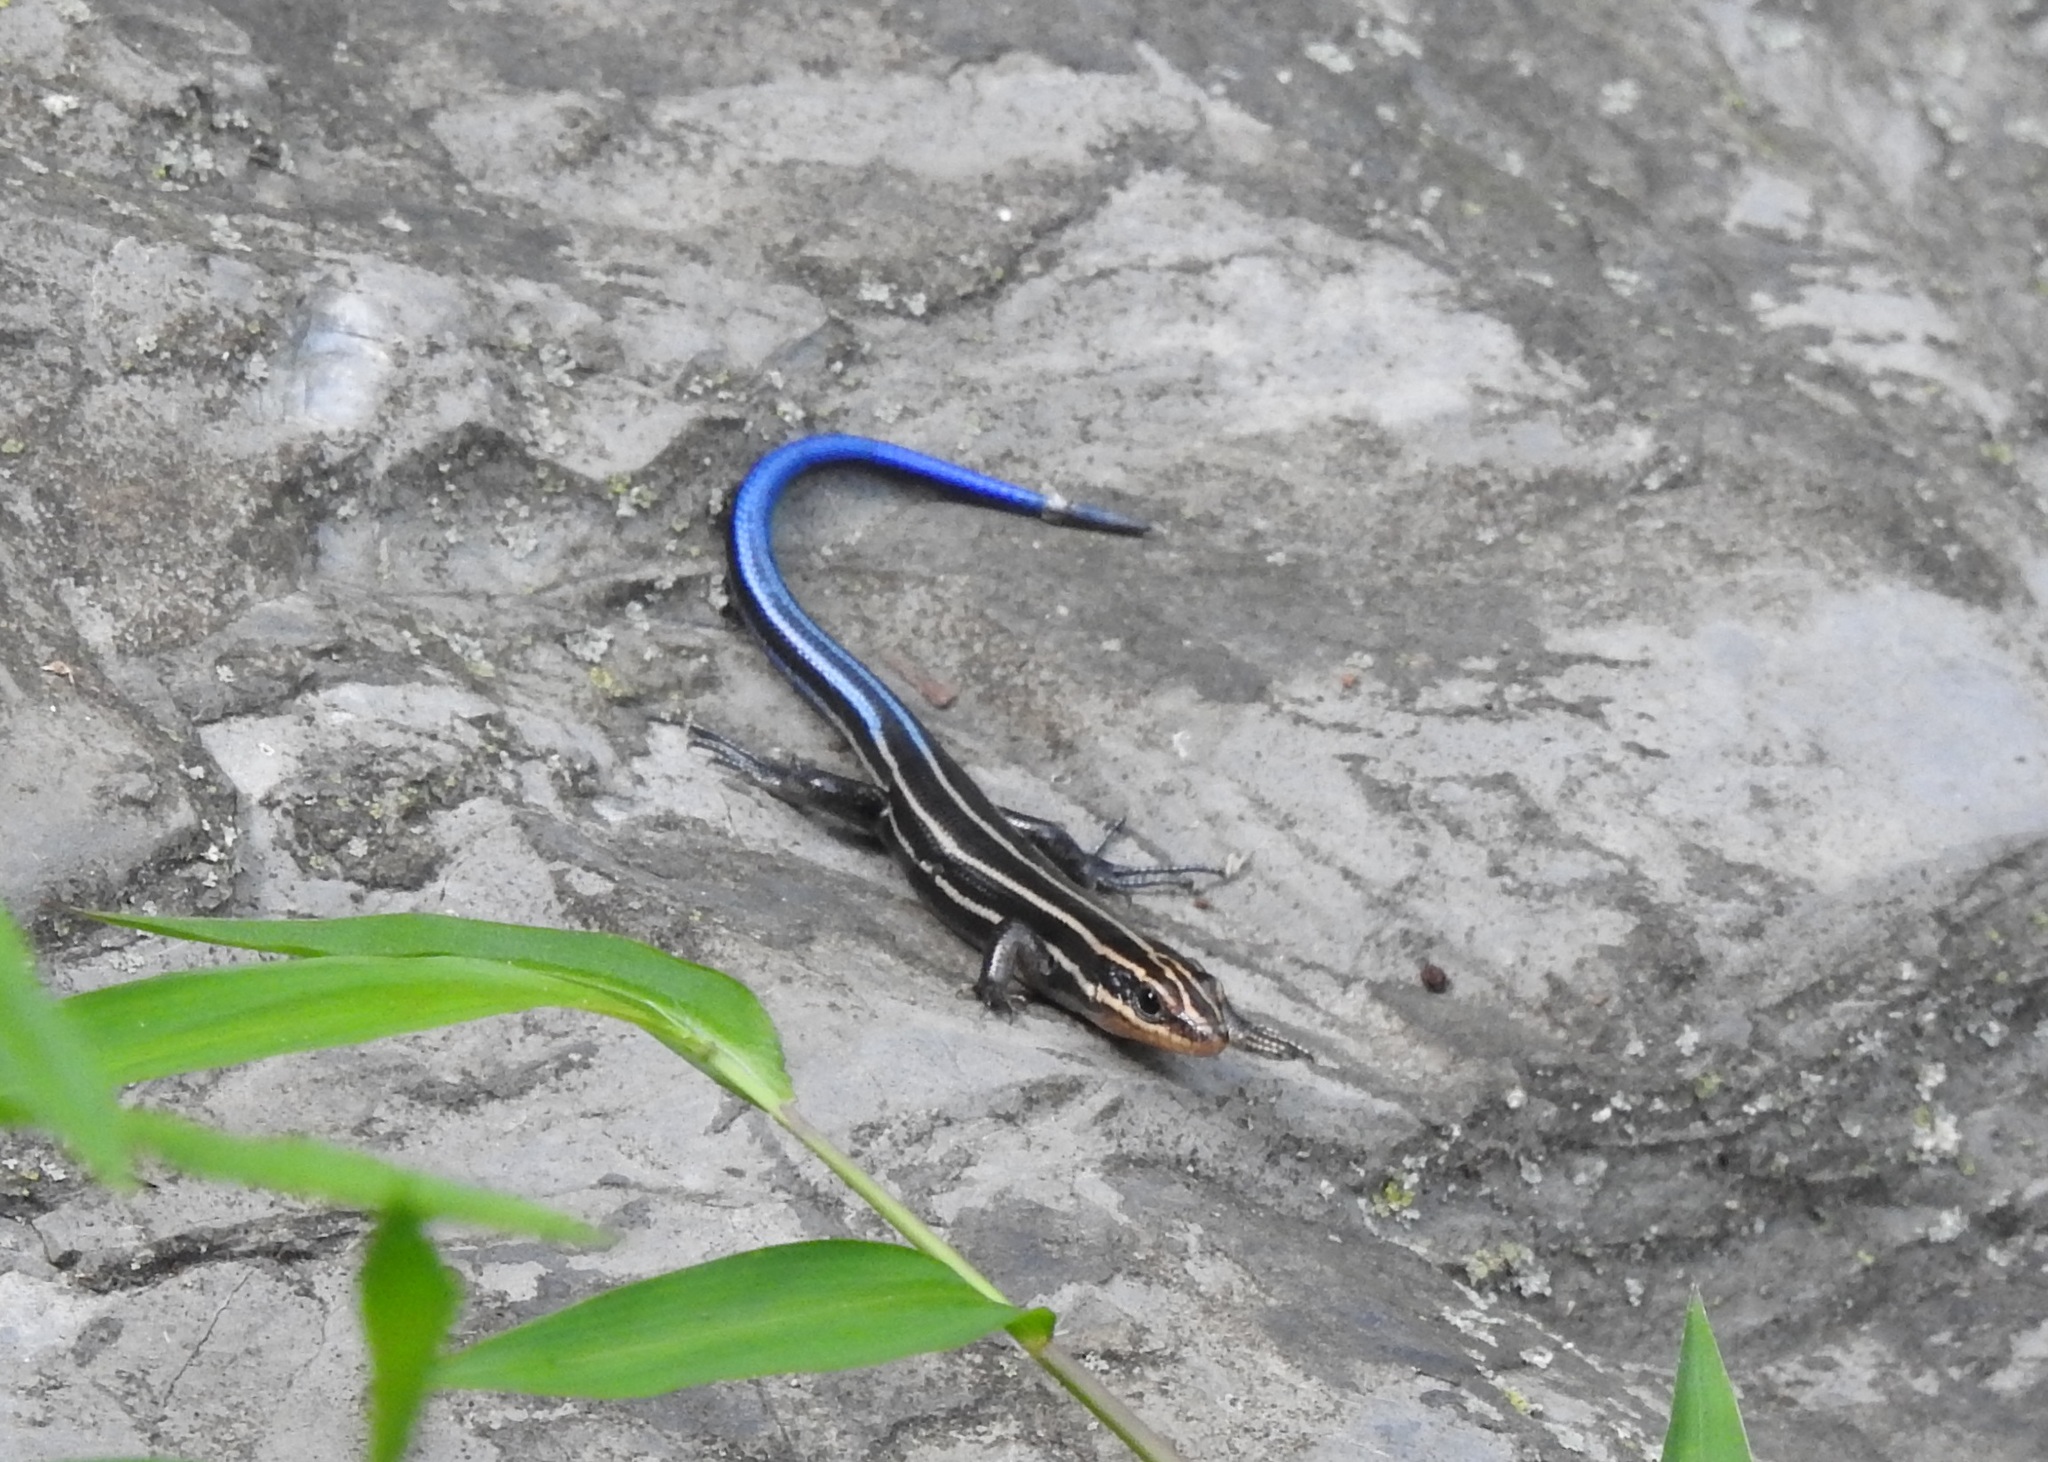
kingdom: Animalia
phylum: Chordata
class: Squamata
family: Scincidae
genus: Plestiodon
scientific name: Plestiodon fasciatus
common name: Five-lined skink
